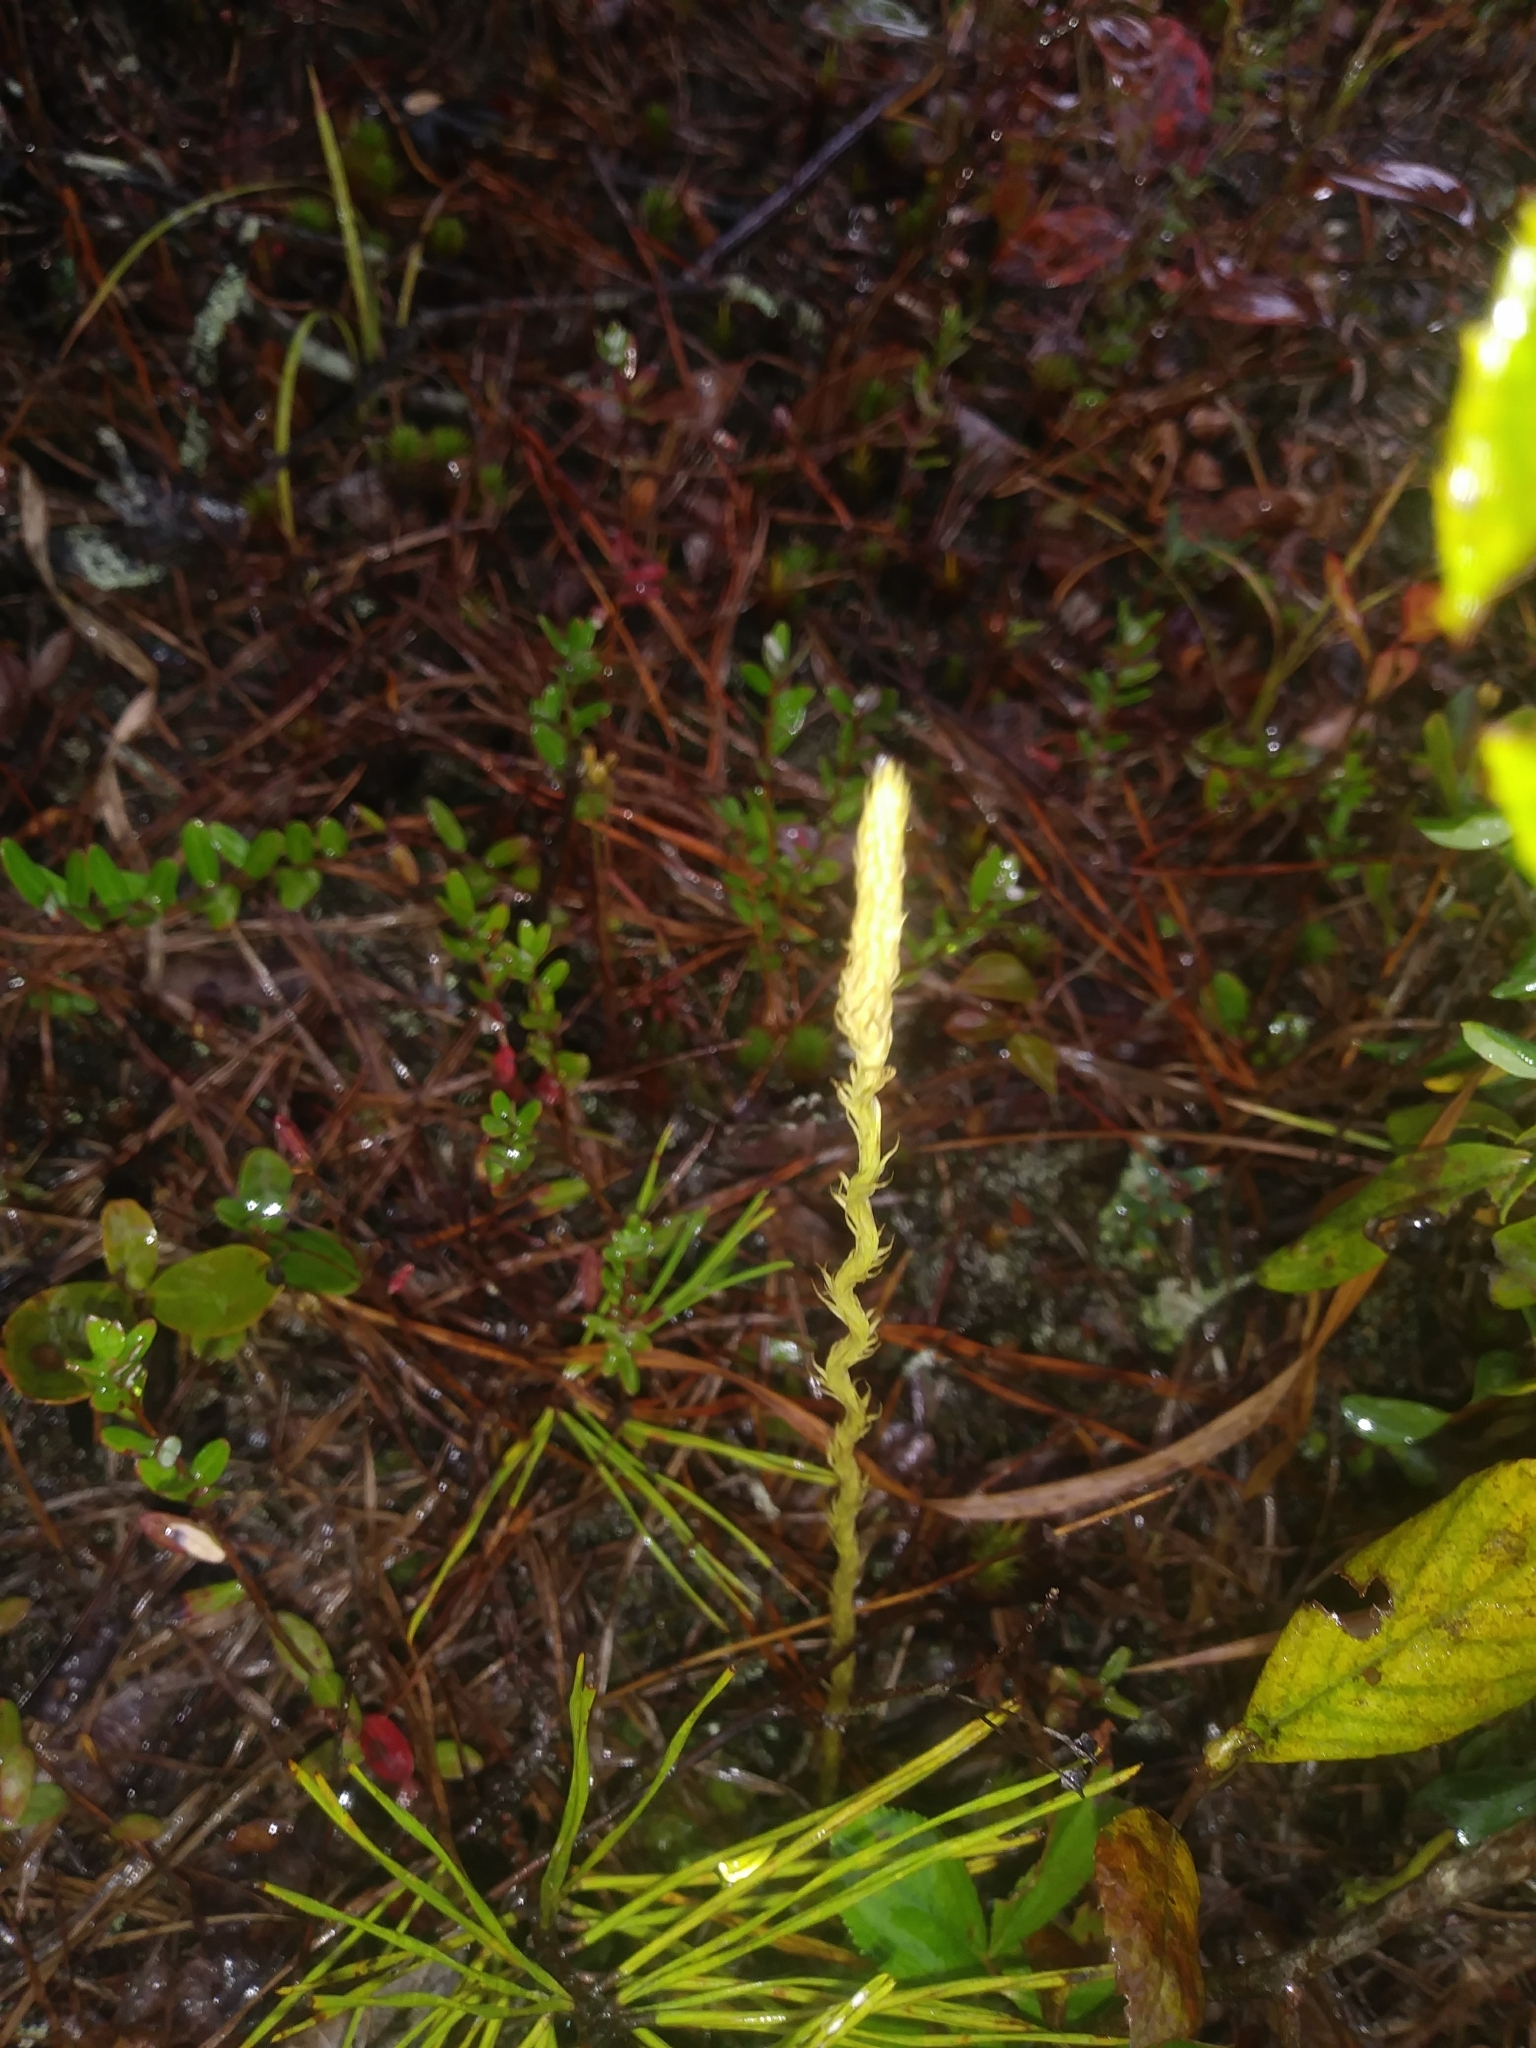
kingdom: Plantae
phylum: Tracheophyta
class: Lycopodiopsida
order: Lycopodiales
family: Lycopodiaceae
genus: Lycopodiella
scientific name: Lycopodiella appressa
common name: Appressed bog clubmoss
